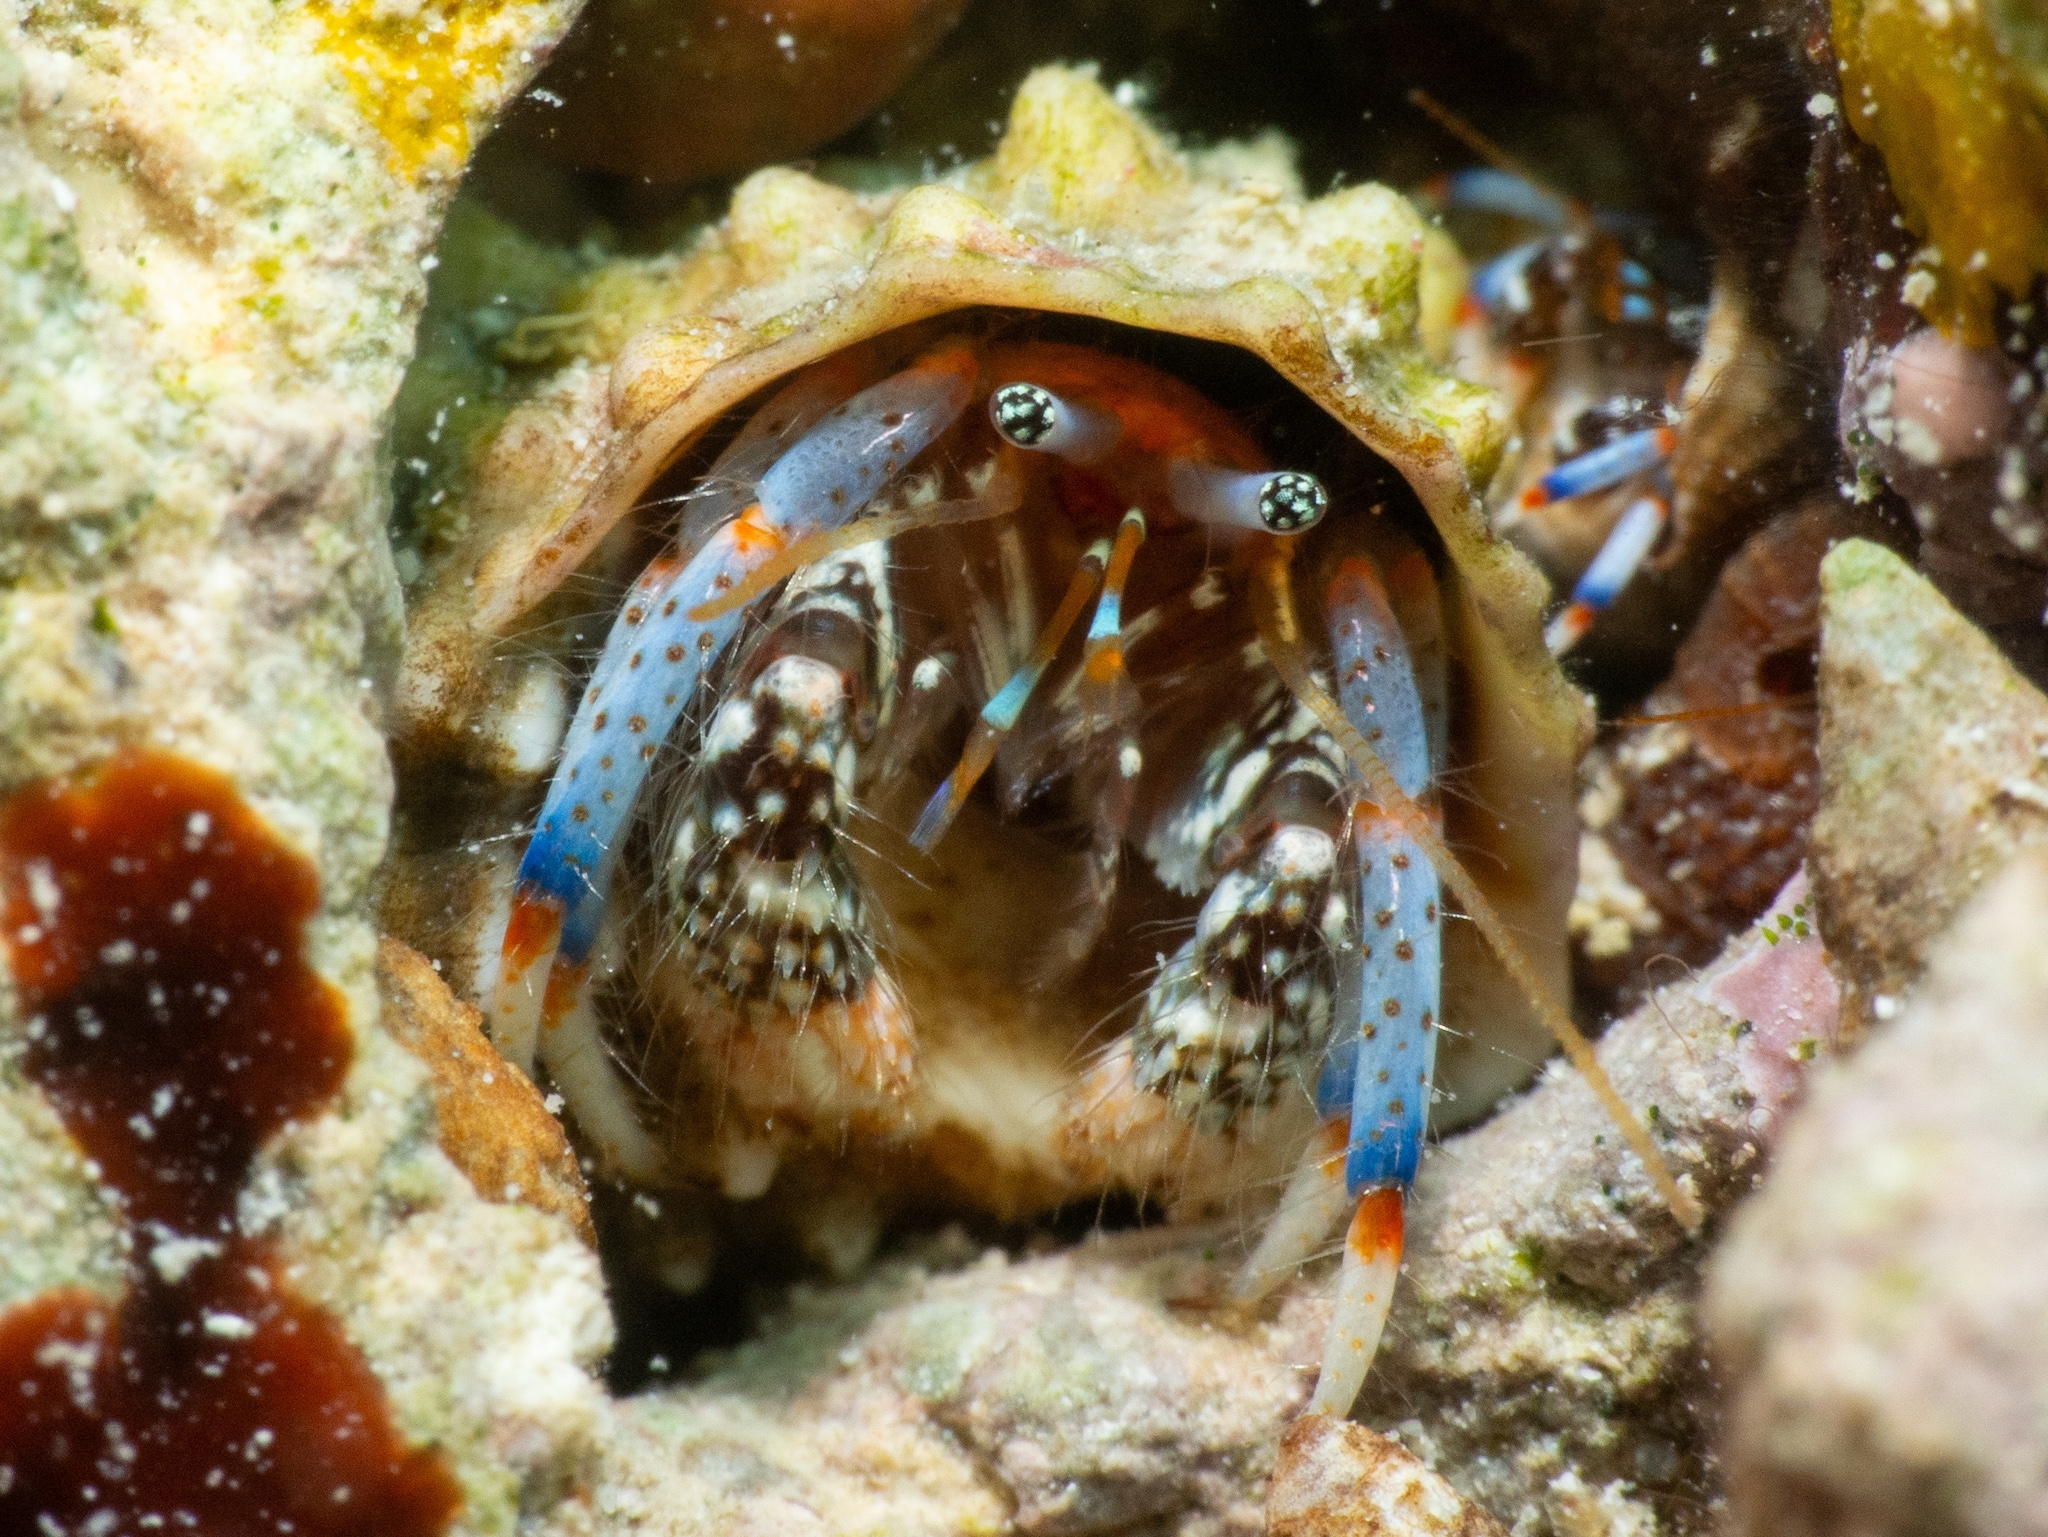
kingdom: Animalia
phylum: Arthropoda
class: Malacostraca
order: Decapoda
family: Diogenidae
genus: Clibanarius
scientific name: Clibanarius tricolor
